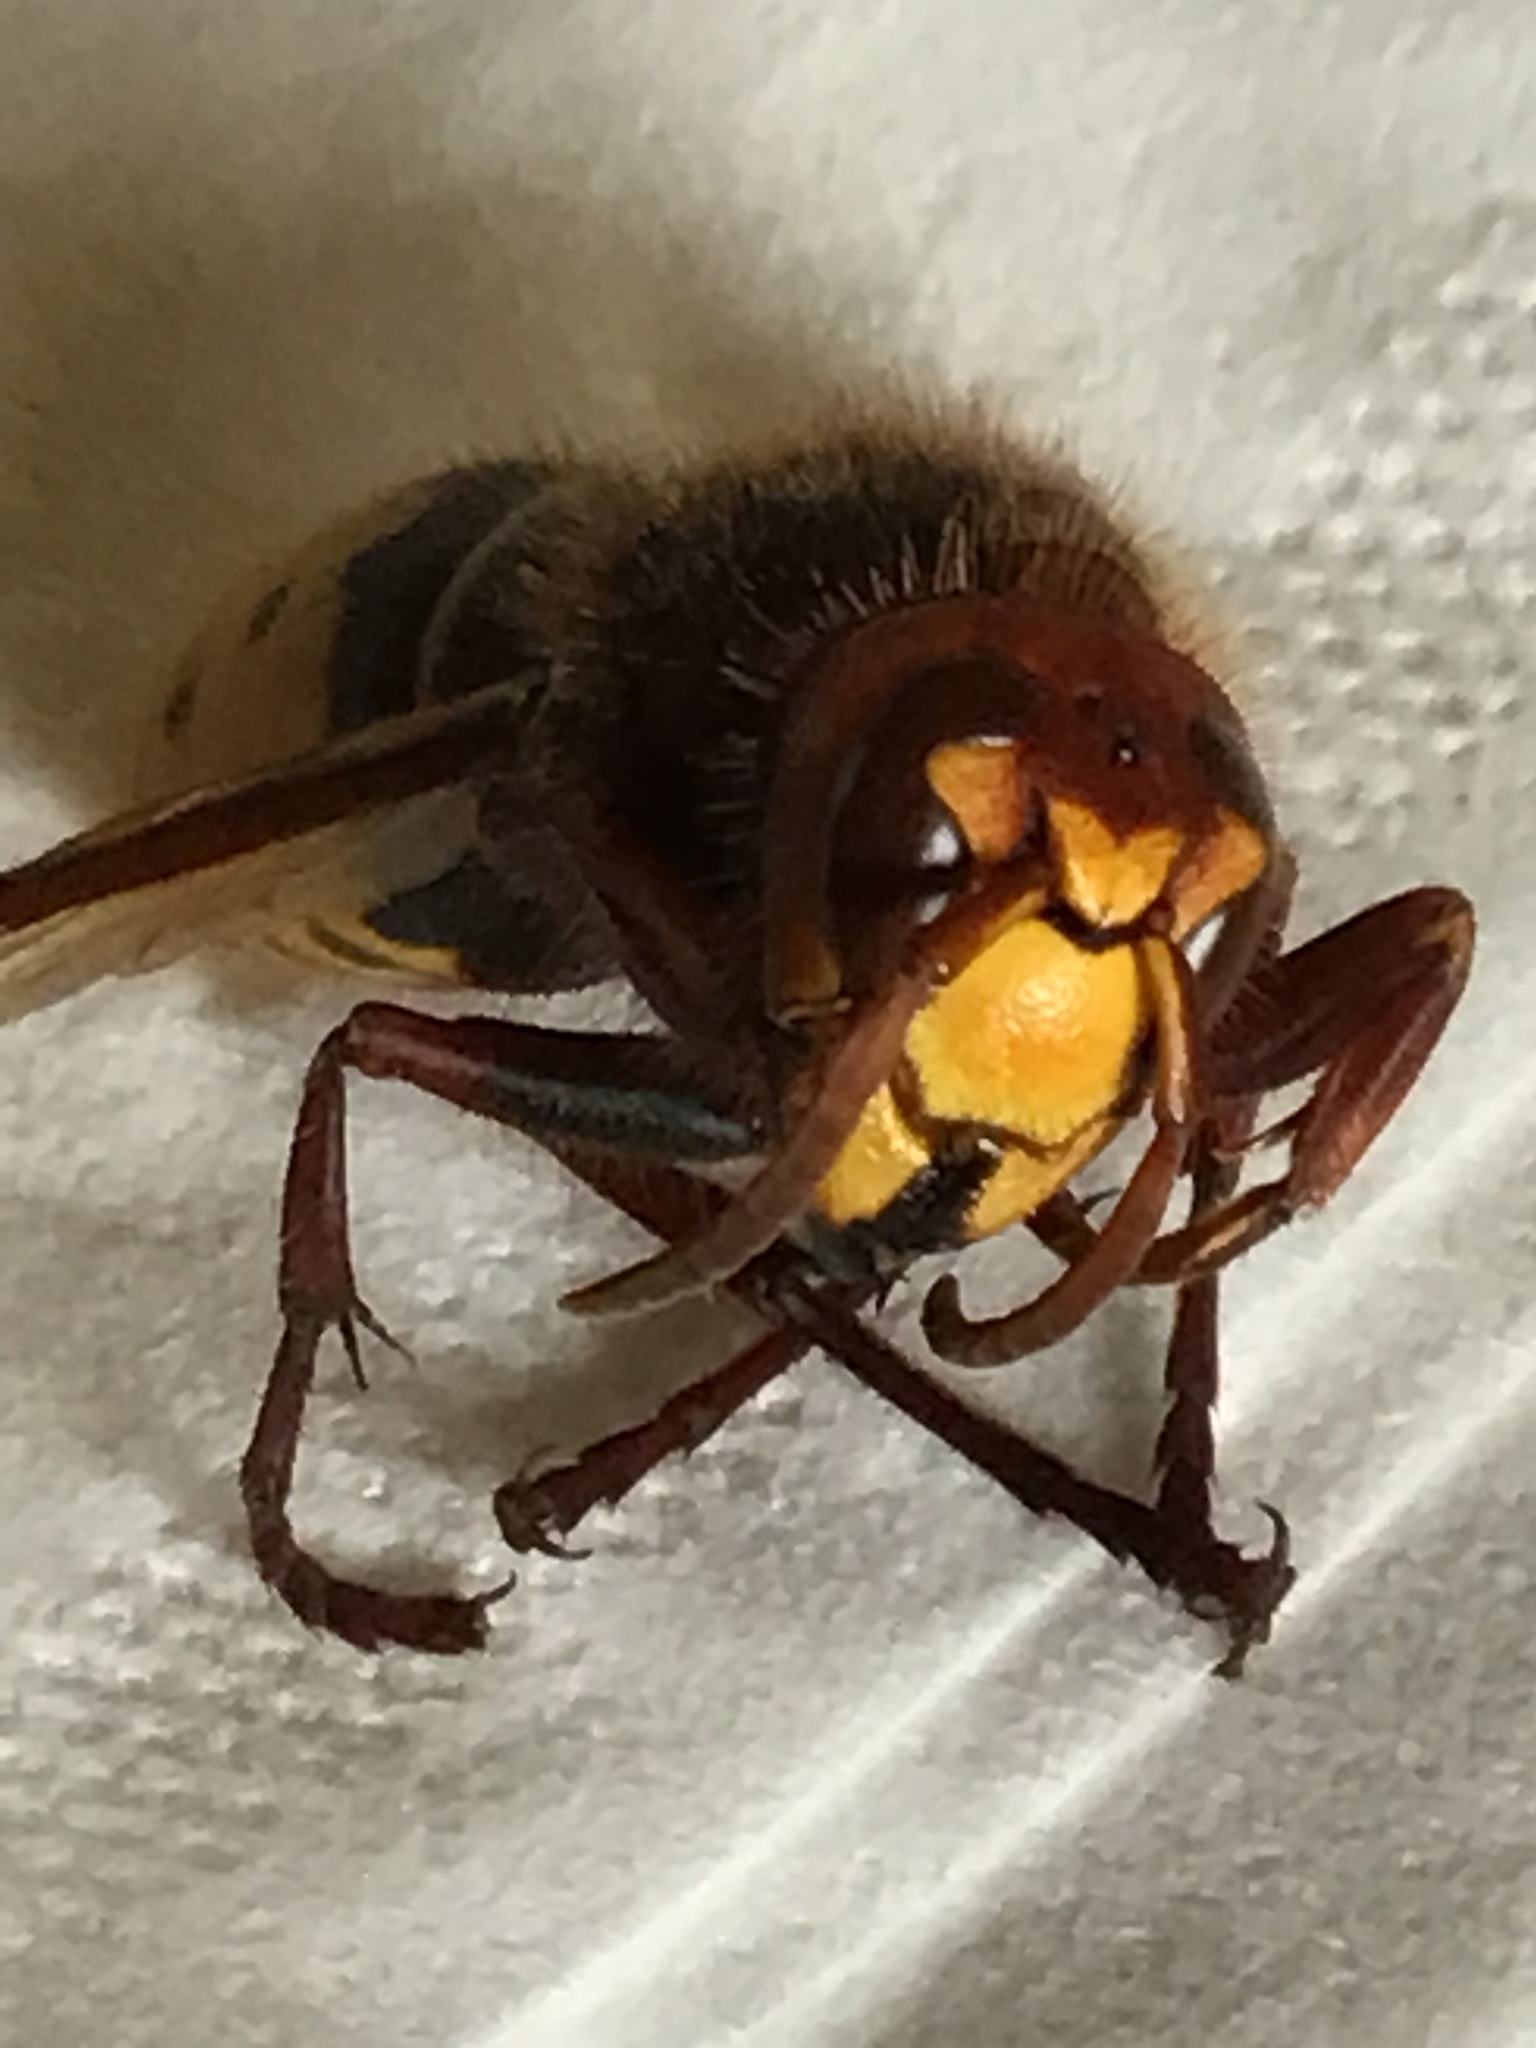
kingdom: Animalia
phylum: Arthropoda
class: Insecta
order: Hymenoptera
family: Vespidae
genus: Vespa
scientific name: Vespa crabro
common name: Hornet
